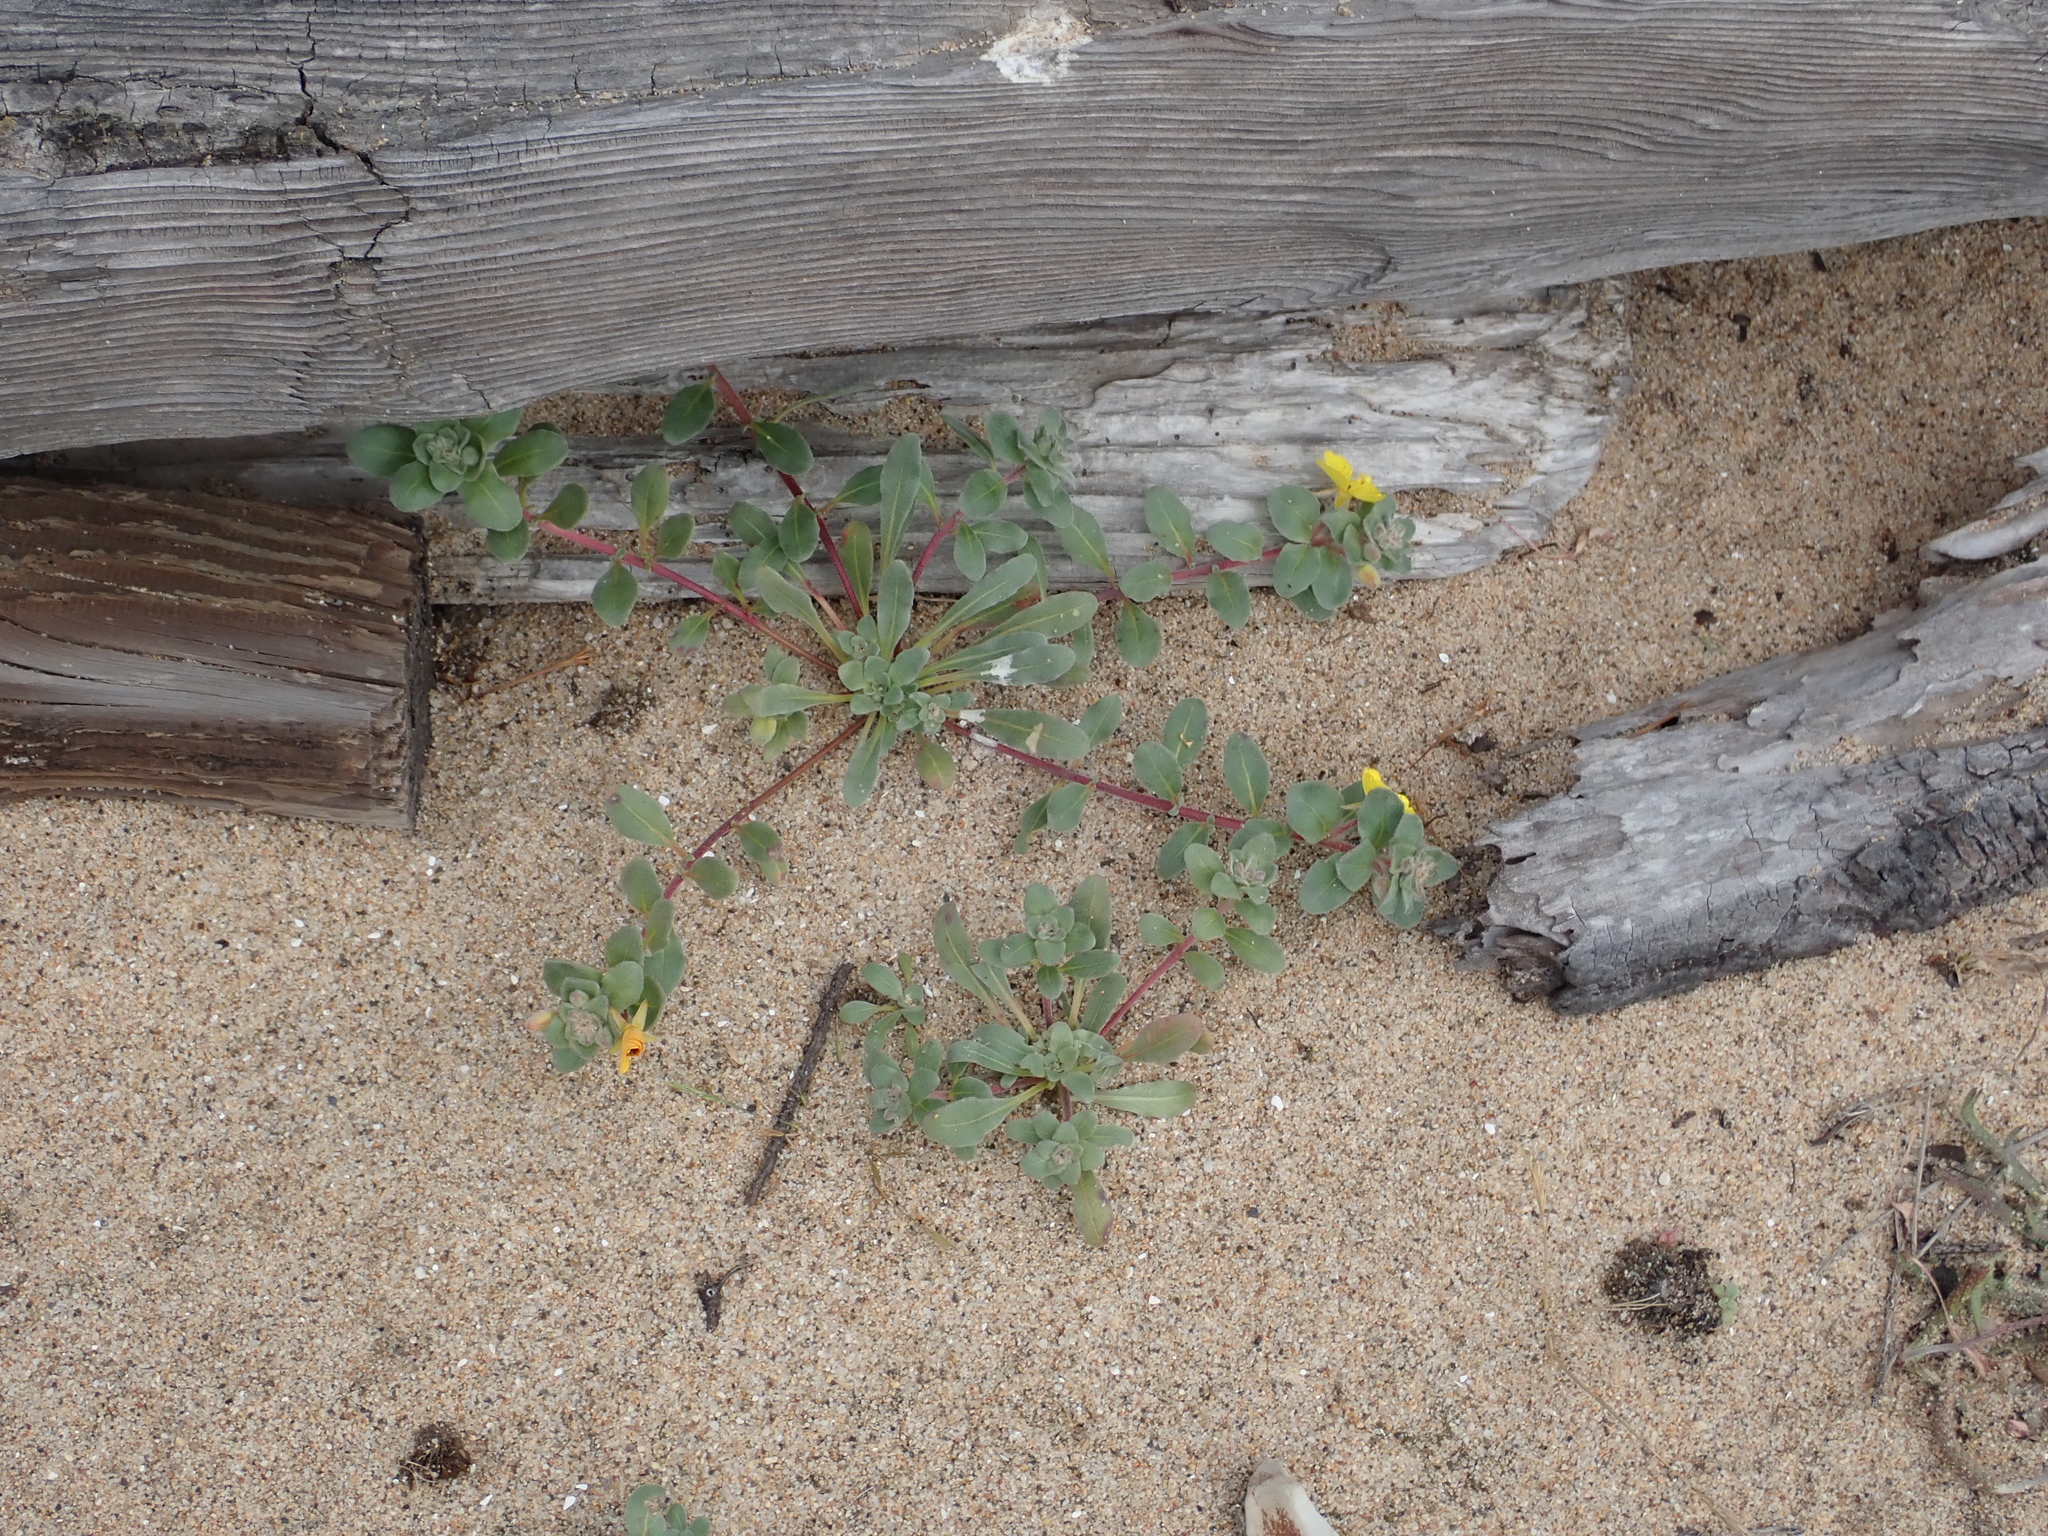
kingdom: Plantae
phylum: Tracheophyta
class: Magnoliopsida
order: Myrtales
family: Onagraceae
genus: Camissoniopsis
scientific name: Camissoniopsis cheiranthifolia
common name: Beach suncup
